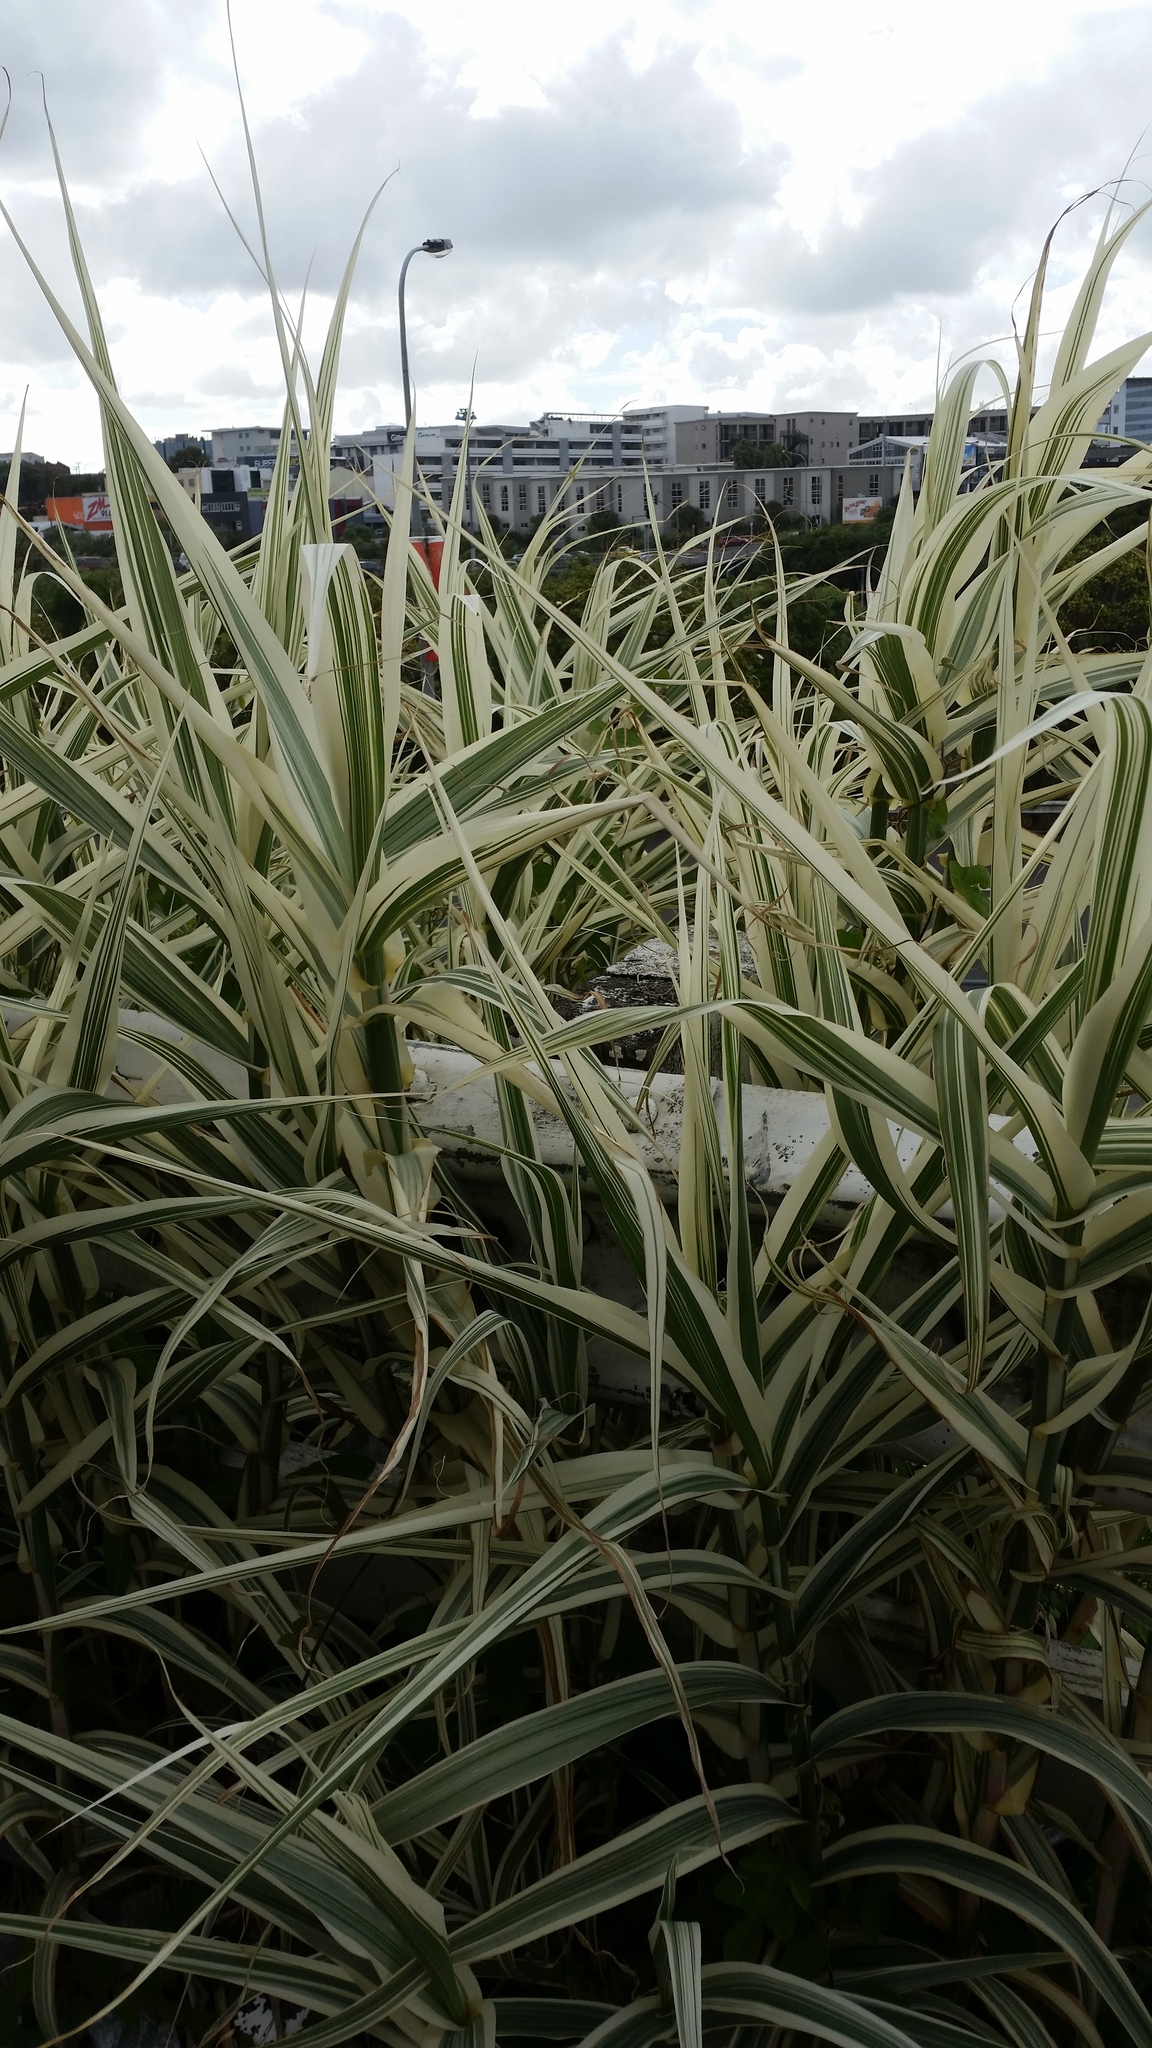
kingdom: Plantae
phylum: Tracheophyta
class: Liliopsida
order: Poales
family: Poaceae
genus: Arundo
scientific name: Arundo donax
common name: Giant reed
